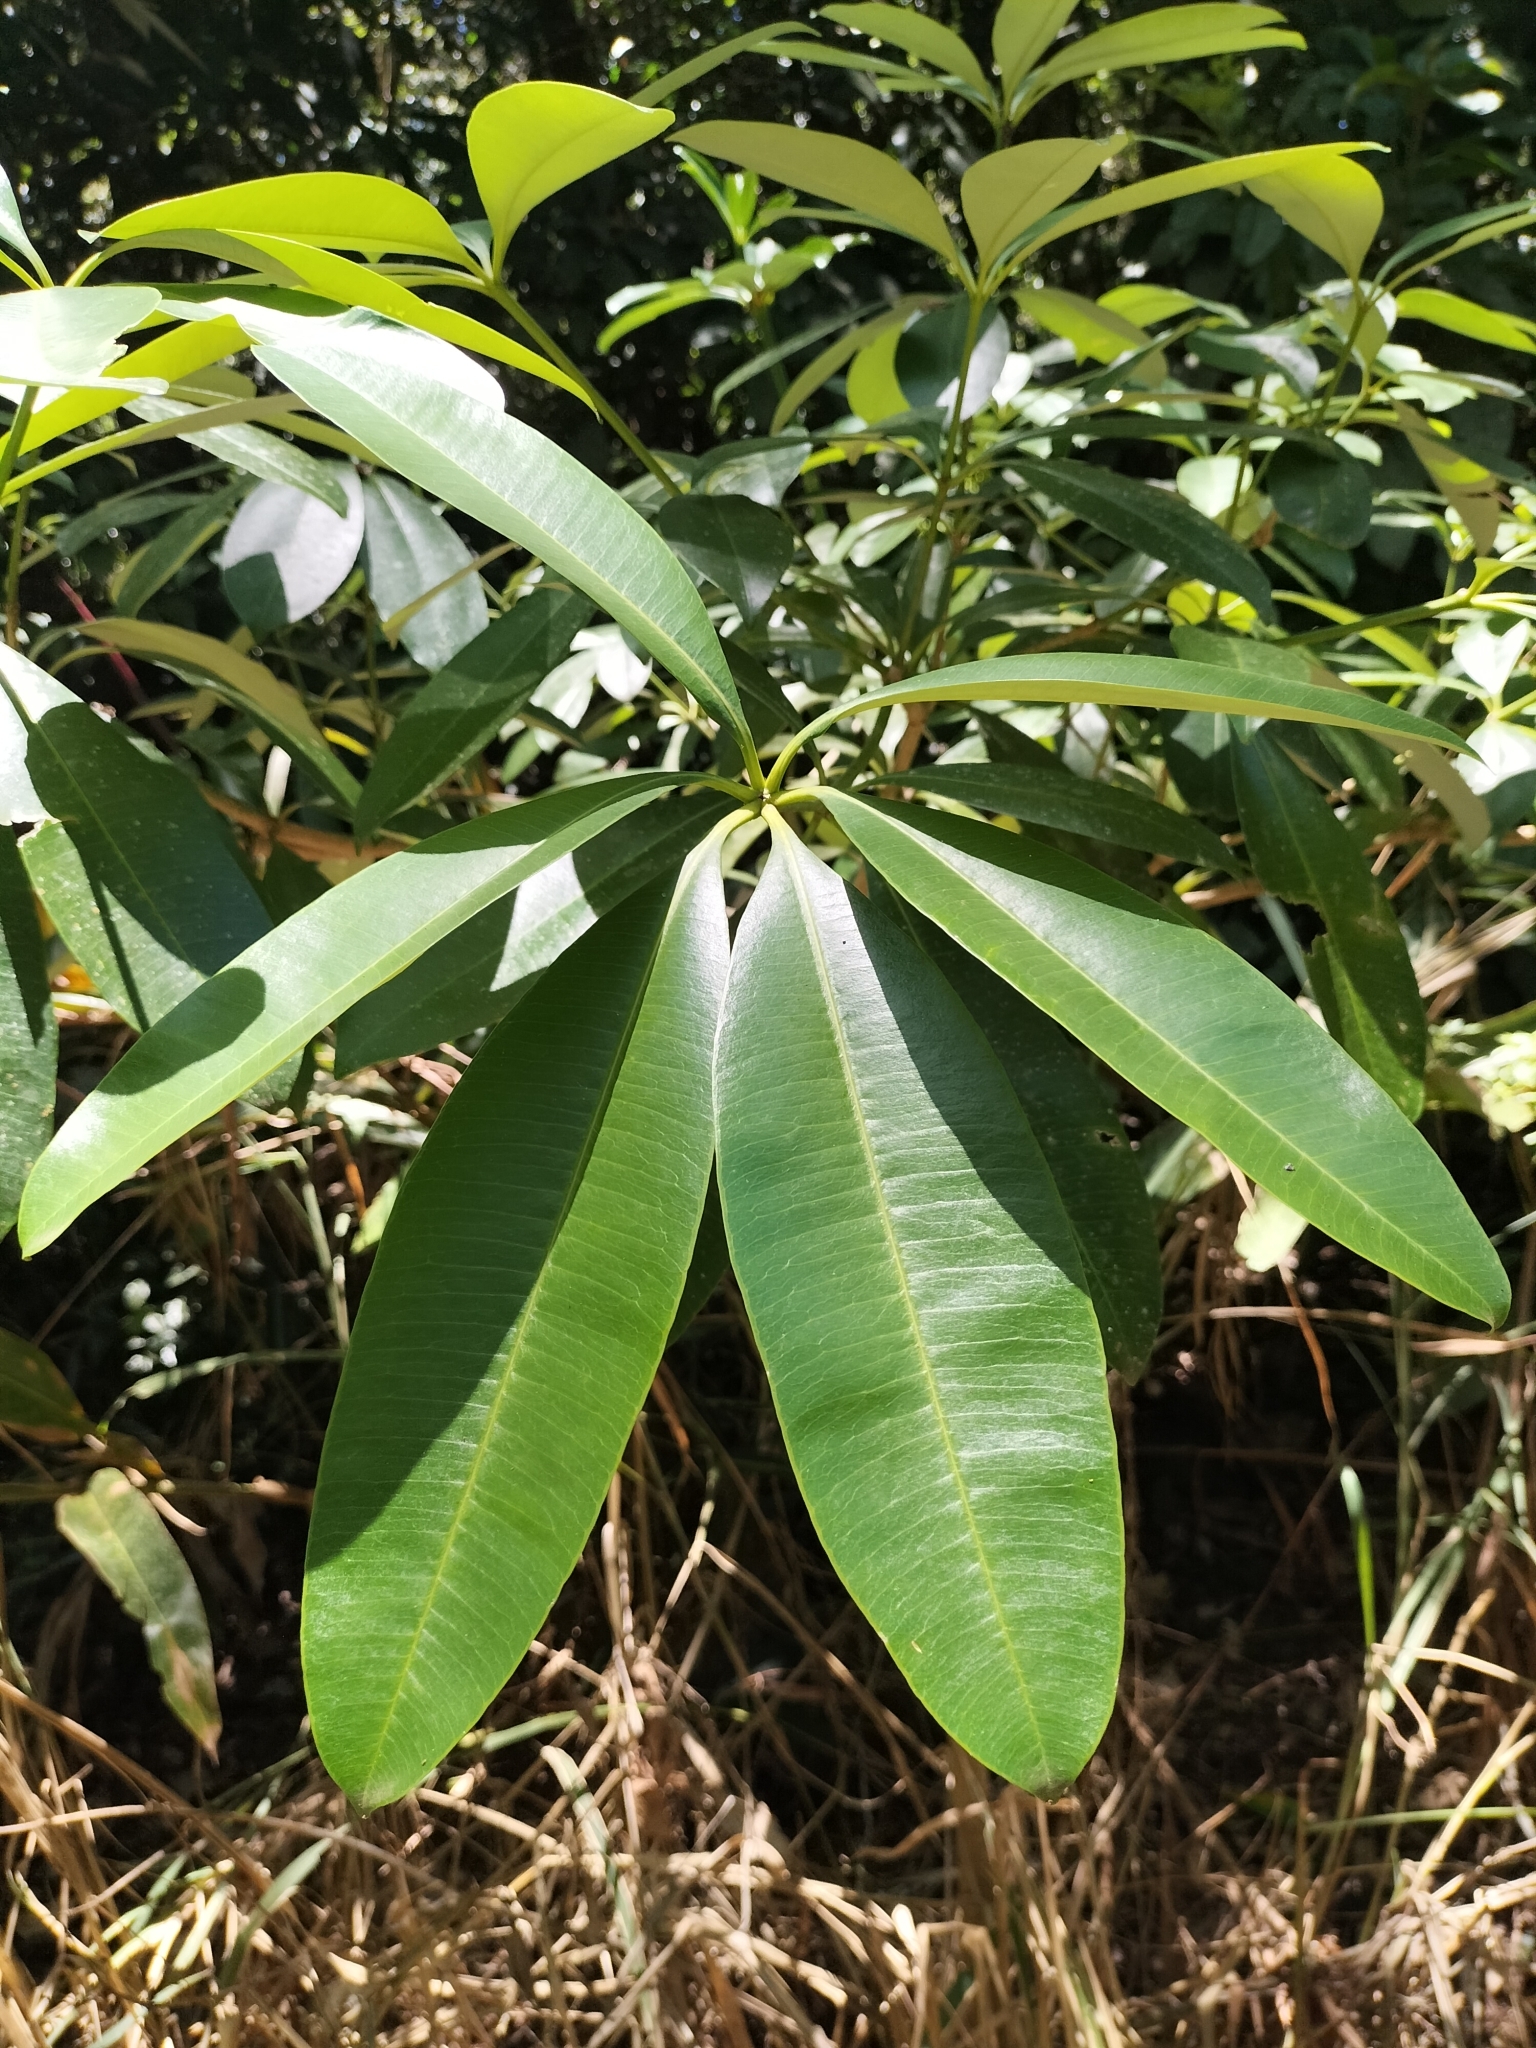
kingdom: Plantae
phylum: Tracheophyta
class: Magnoliopsida
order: Gentianales
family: Apocynaceae
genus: Alstonia
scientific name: Alstonia scholaris
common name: White cheesewood
